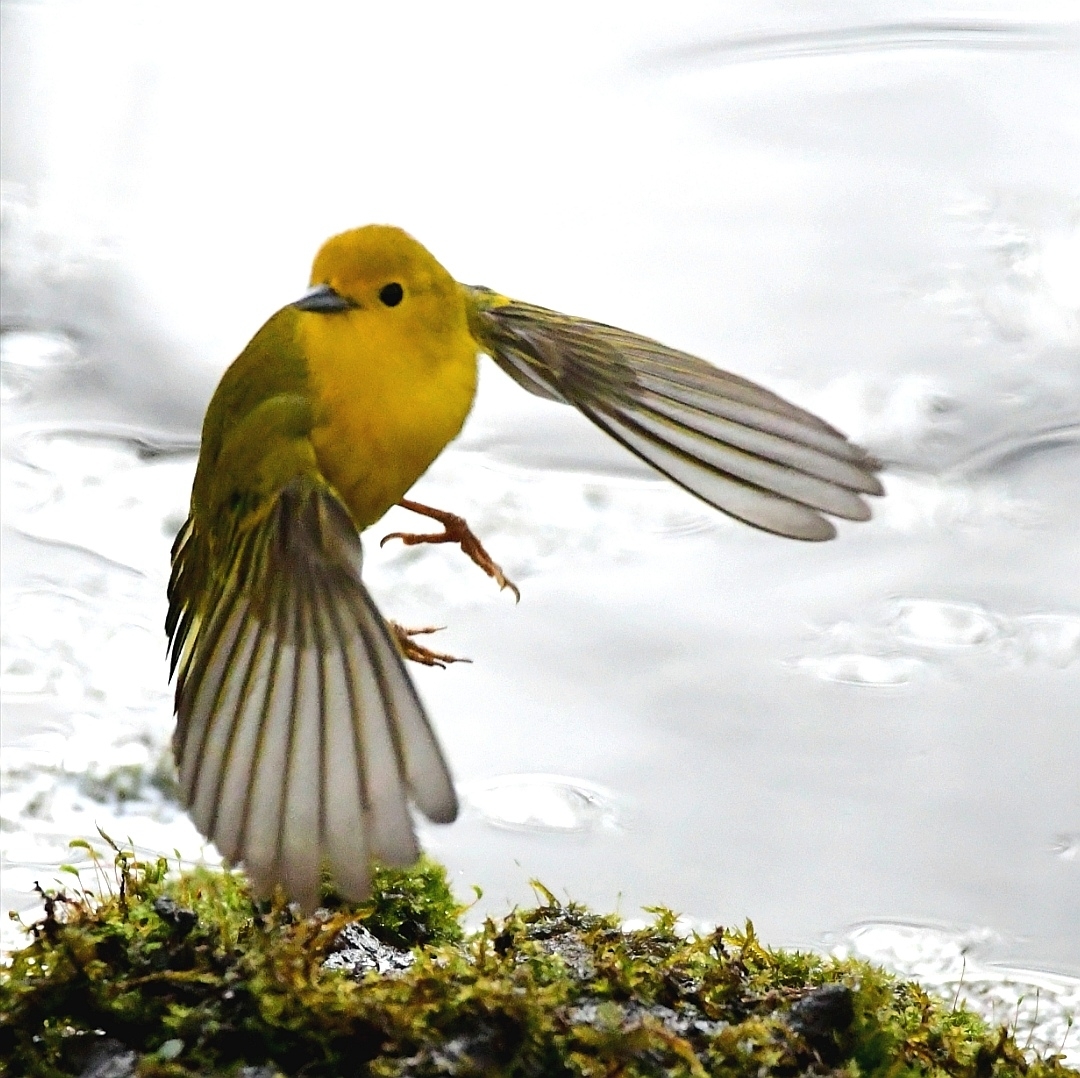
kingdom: Animalia
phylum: Chordata
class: Aves
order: Passeriformes
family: Parulidae
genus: Setophaga
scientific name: Setophaga petechia
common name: Yellow warbler
